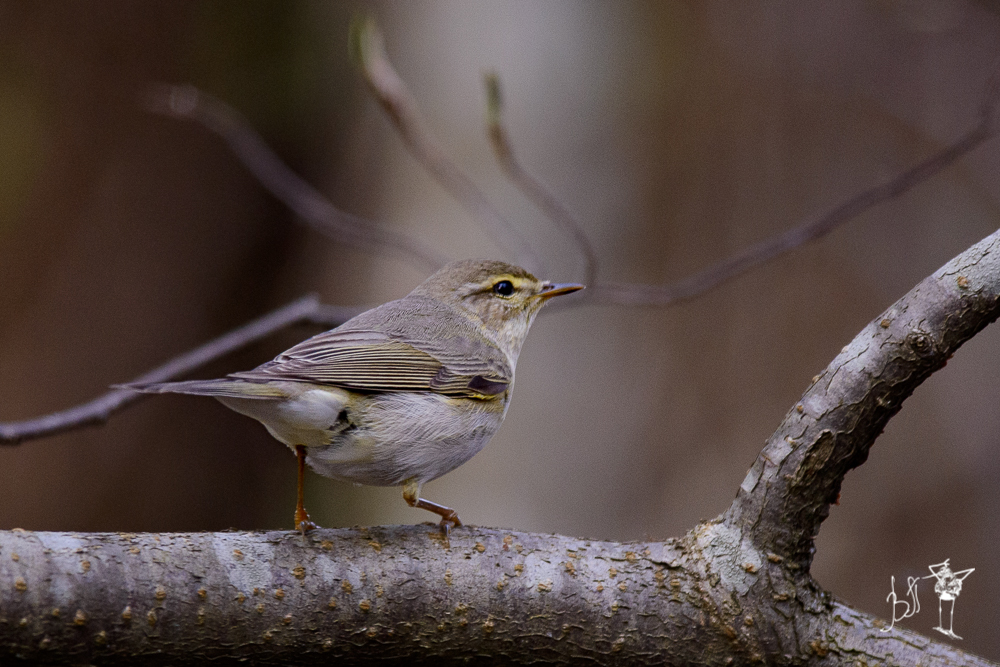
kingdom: Animalia
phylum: Chordata
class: Aves
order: Passeriformes
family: Phylloscopidae
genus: Phylloscopus
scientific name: Phylloscopus trochilus
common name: Willow warbler
